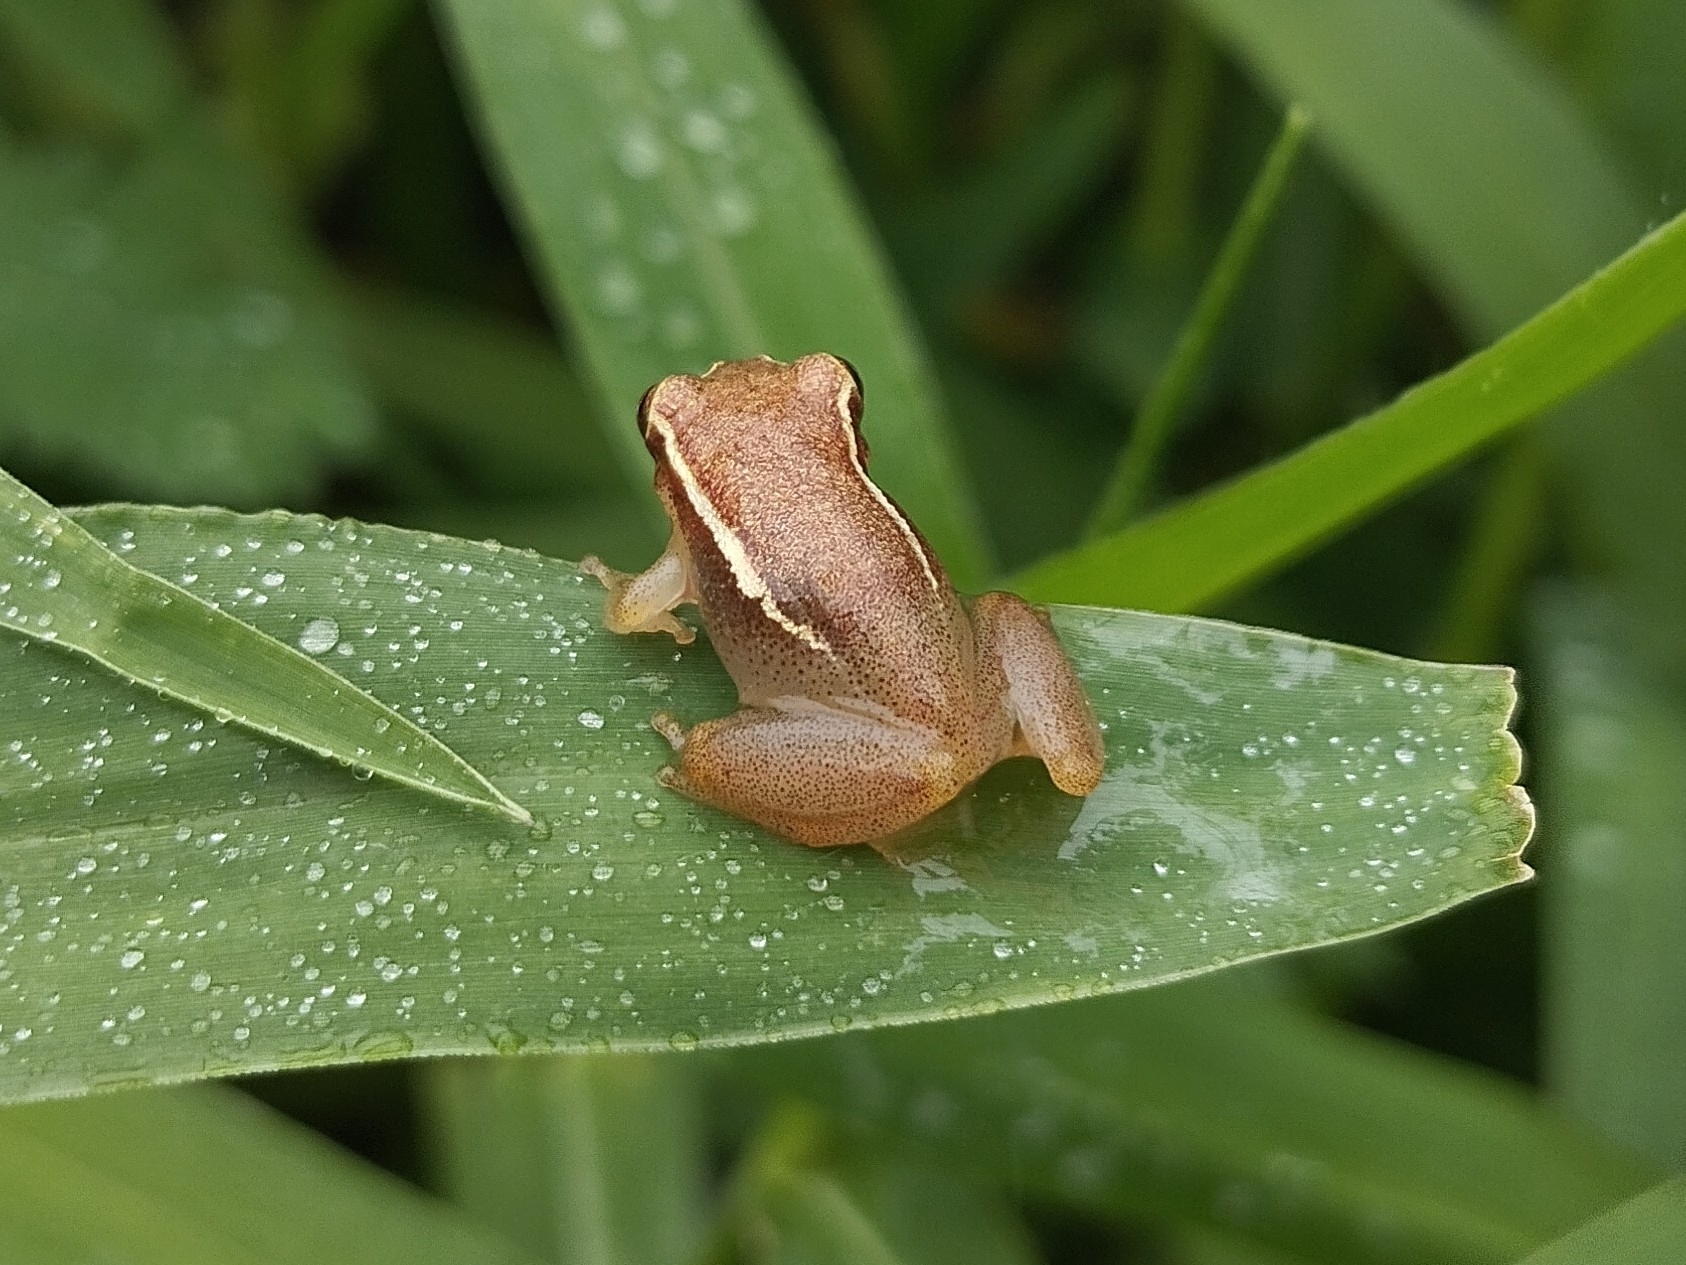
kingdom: Animalia
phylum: Chordata
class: Amphibia
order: Anura
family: Hylidae
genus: Dendropsophus
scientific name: Dendropsophus decipiens
